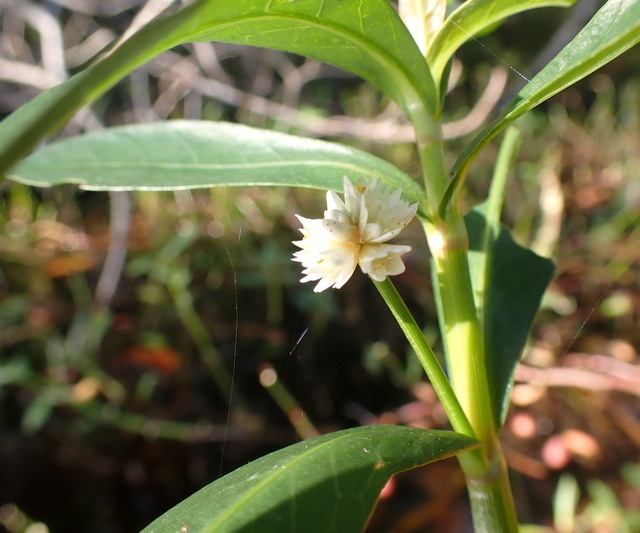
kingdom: Plantae
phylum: Tracheophyta
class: Magnoliopsida
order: Caryophyllales
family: Amaranthaceae
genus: Alternanthera
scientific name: Alternanthera philoxeroides
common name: Alligatorweed
